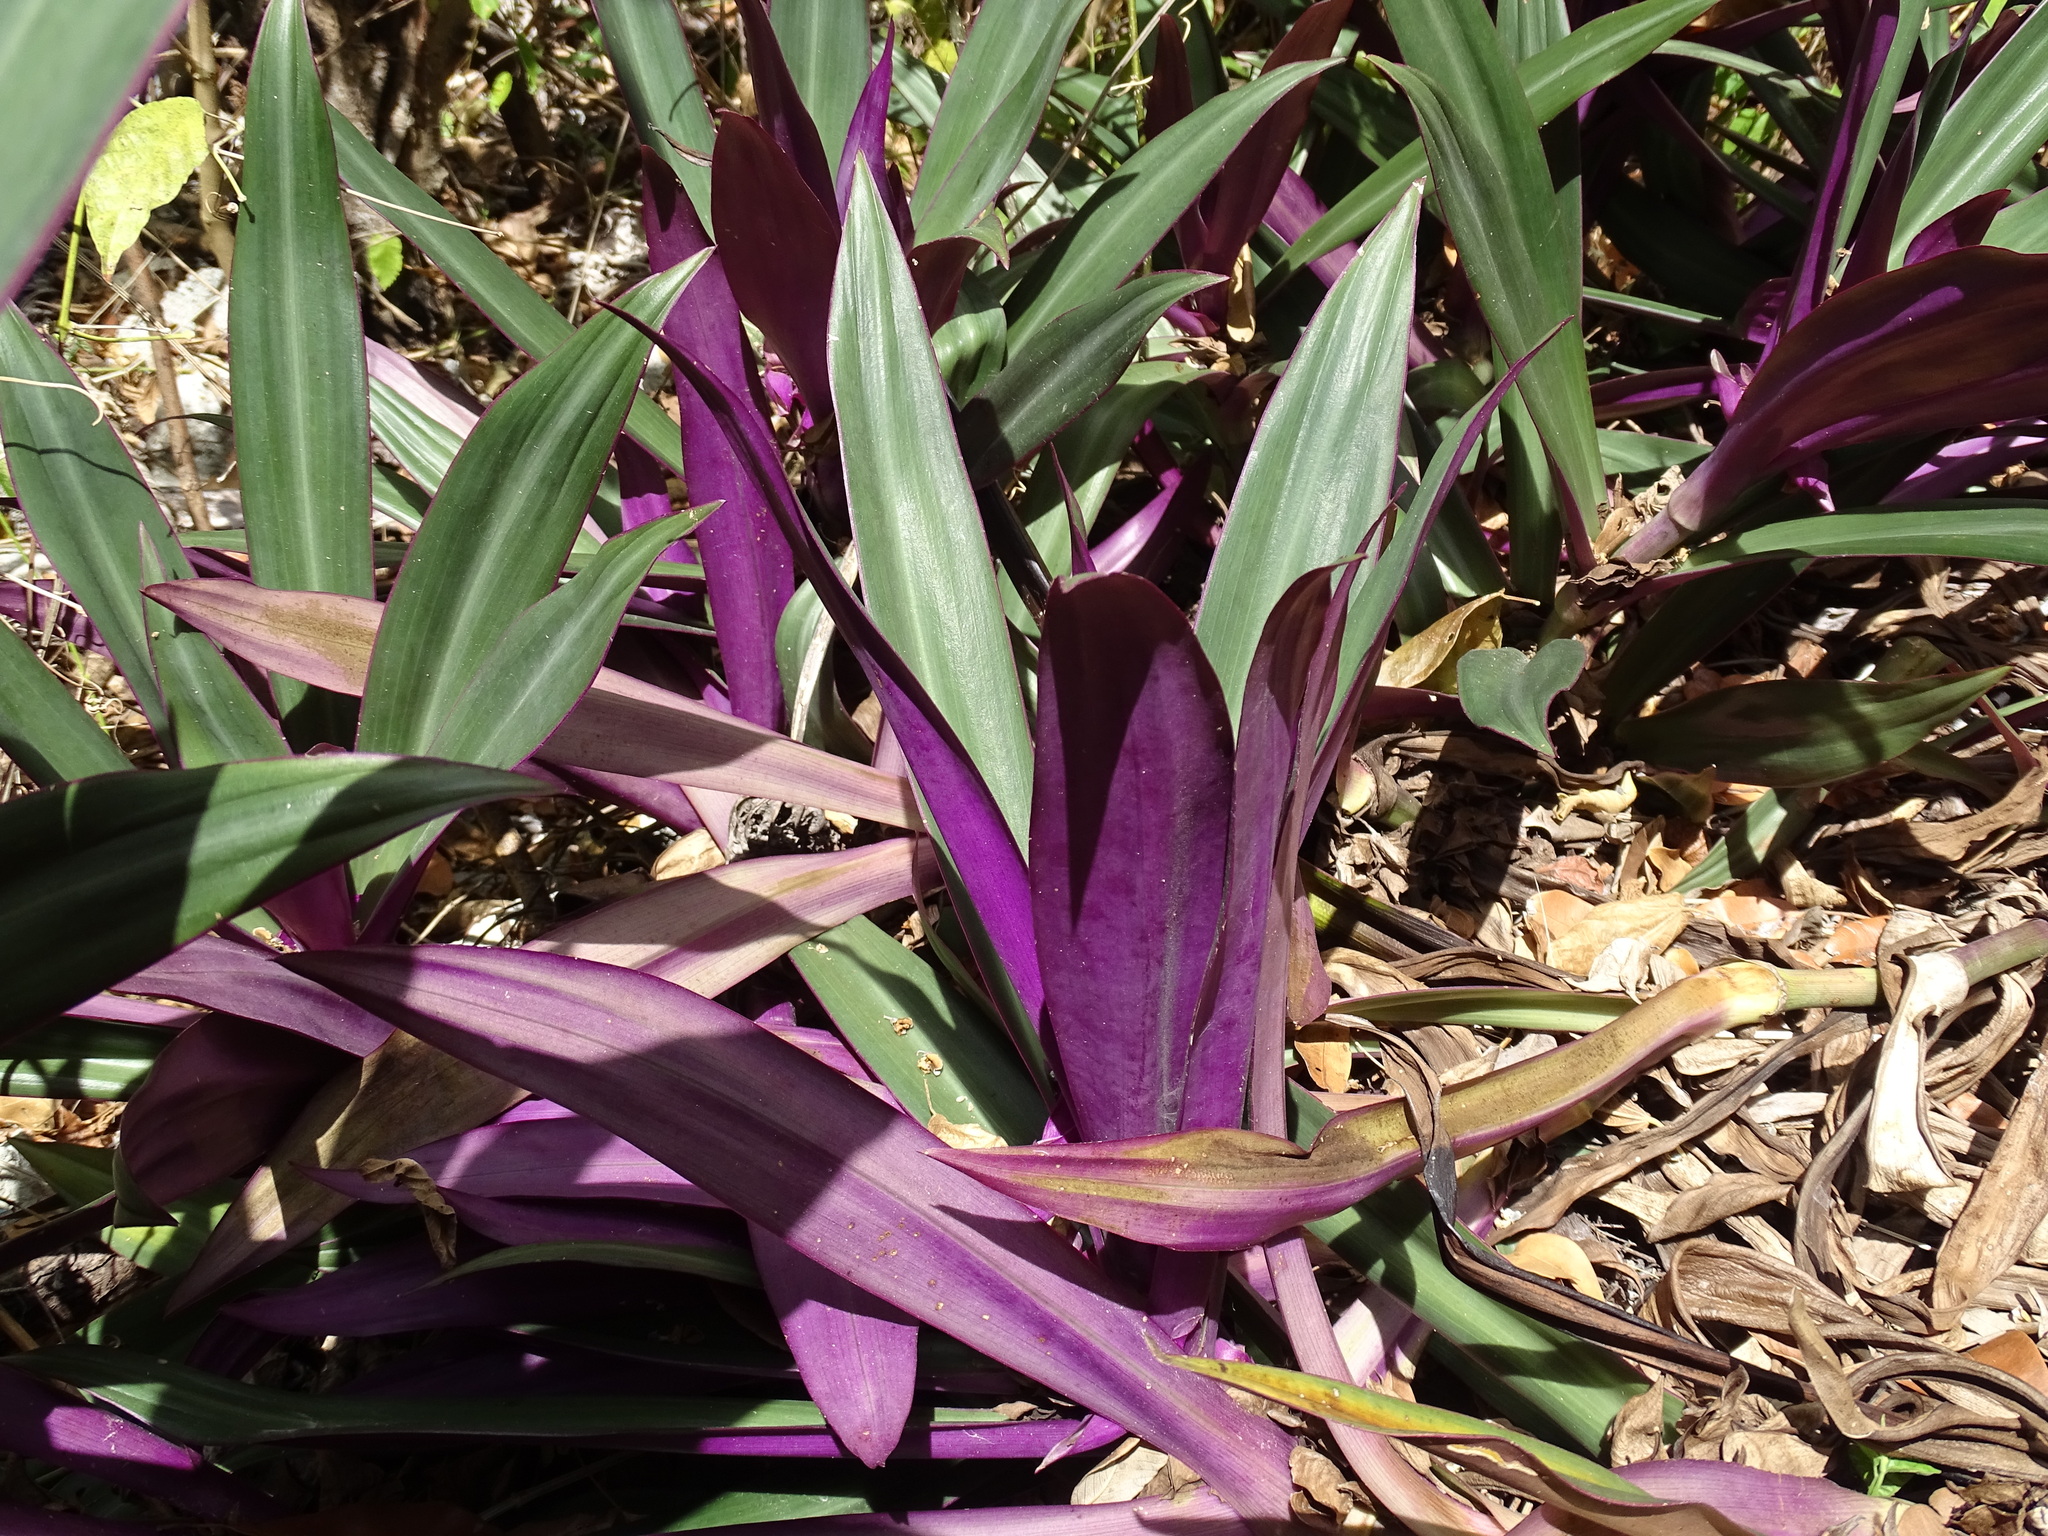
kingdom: Plantae
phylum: Tracheophyta
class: Liliopsida
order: Commelinales
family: Commelinaceae
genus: Tradescantia
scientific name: Tradescantia spathacea
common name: Boatlily
